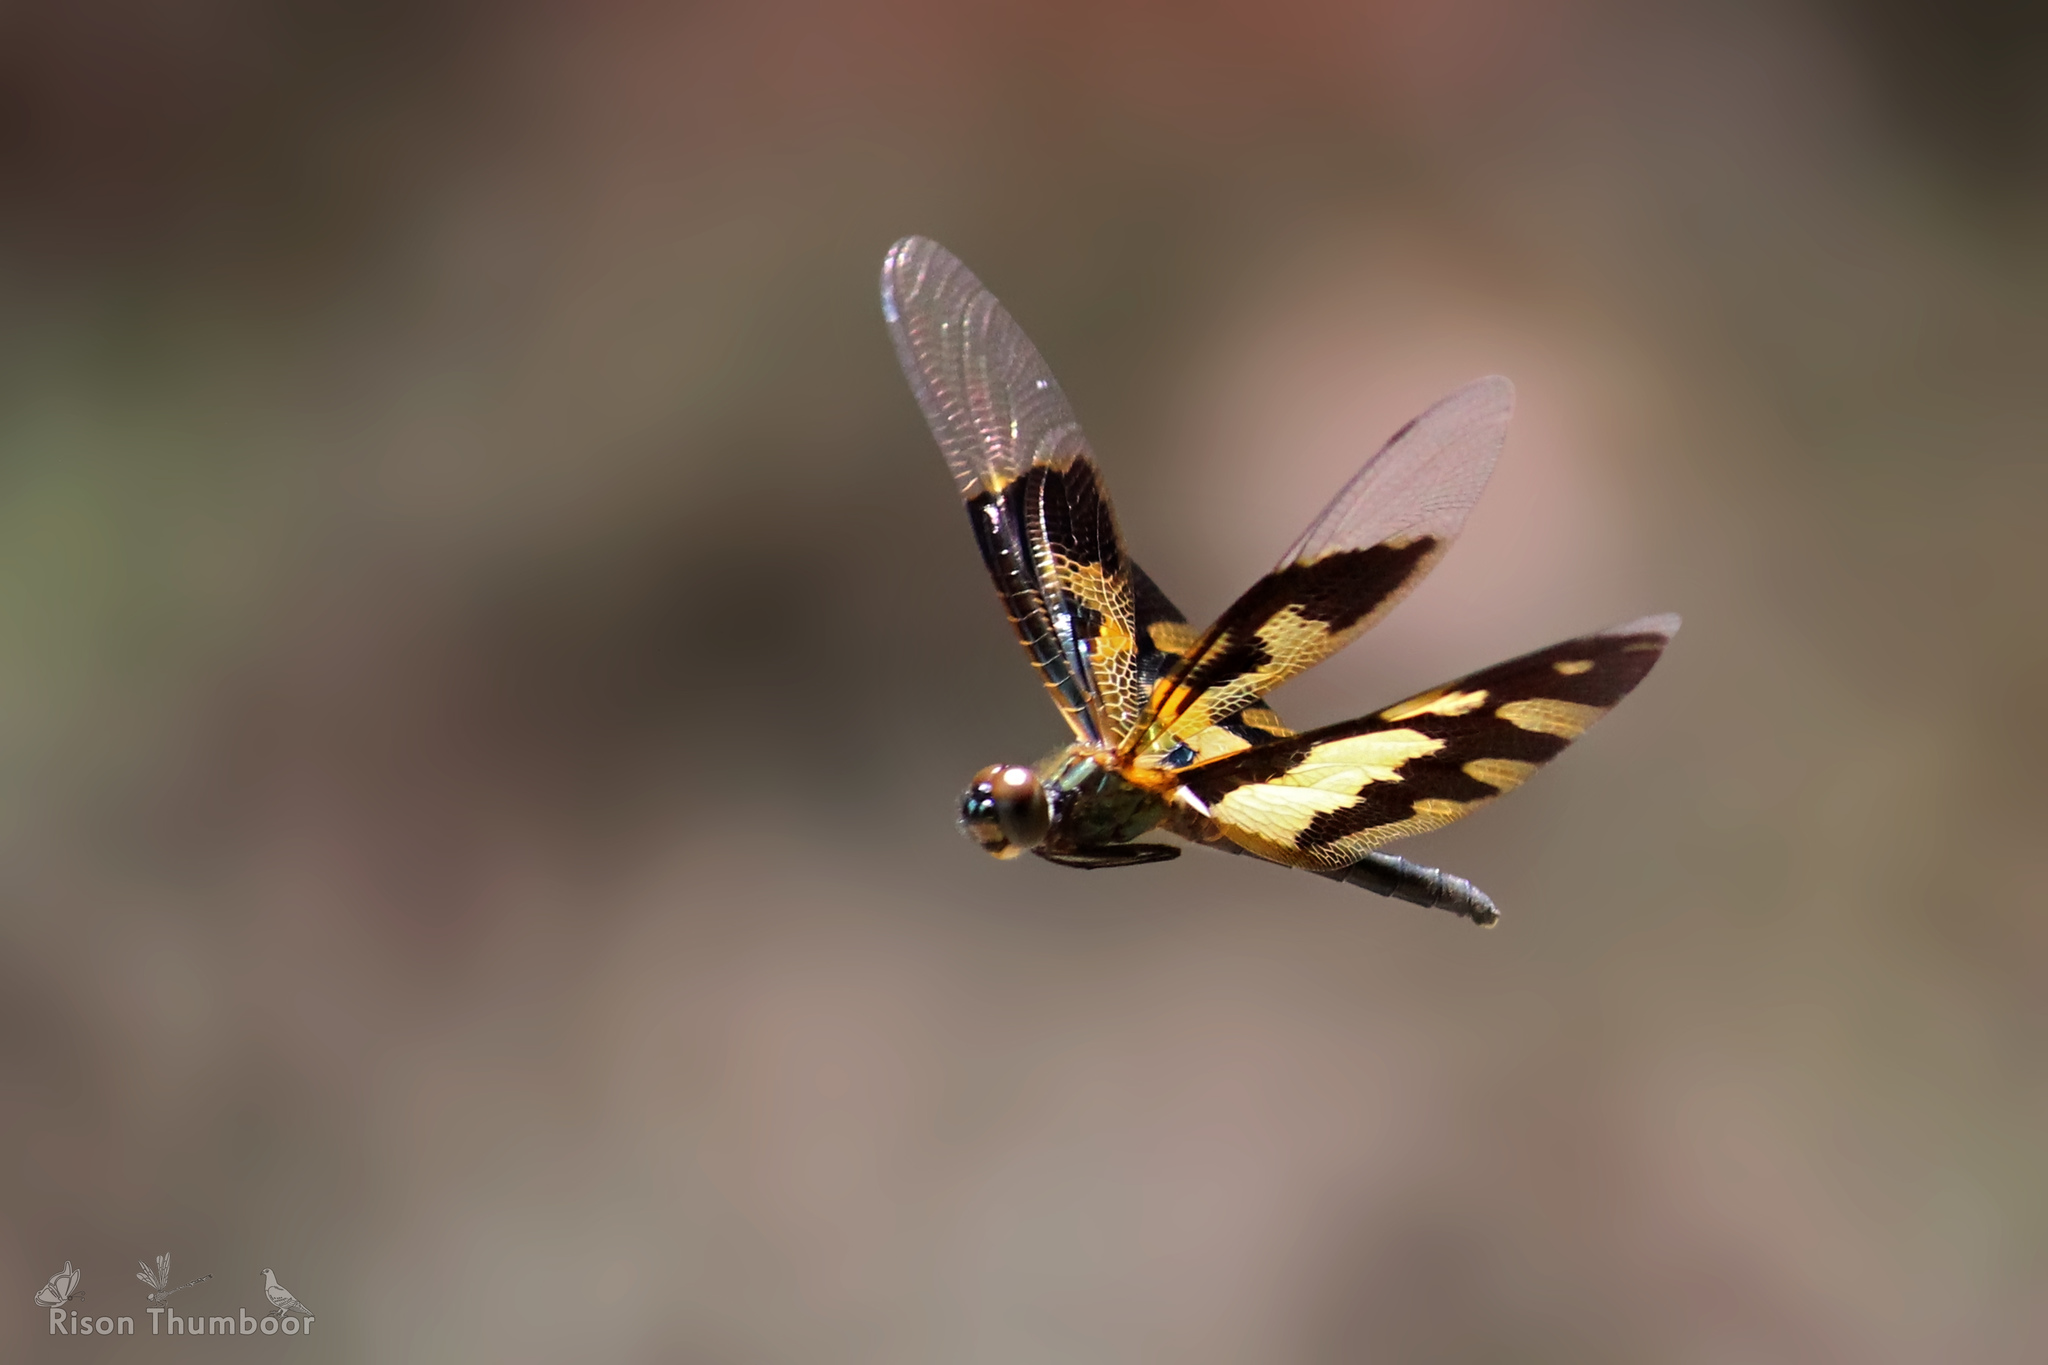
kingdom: Animalia
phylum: Arthropoda
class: Insecta
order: Odonata
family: Libellulidae
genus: Rhyothemis
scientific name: Rhyothemis variegata
